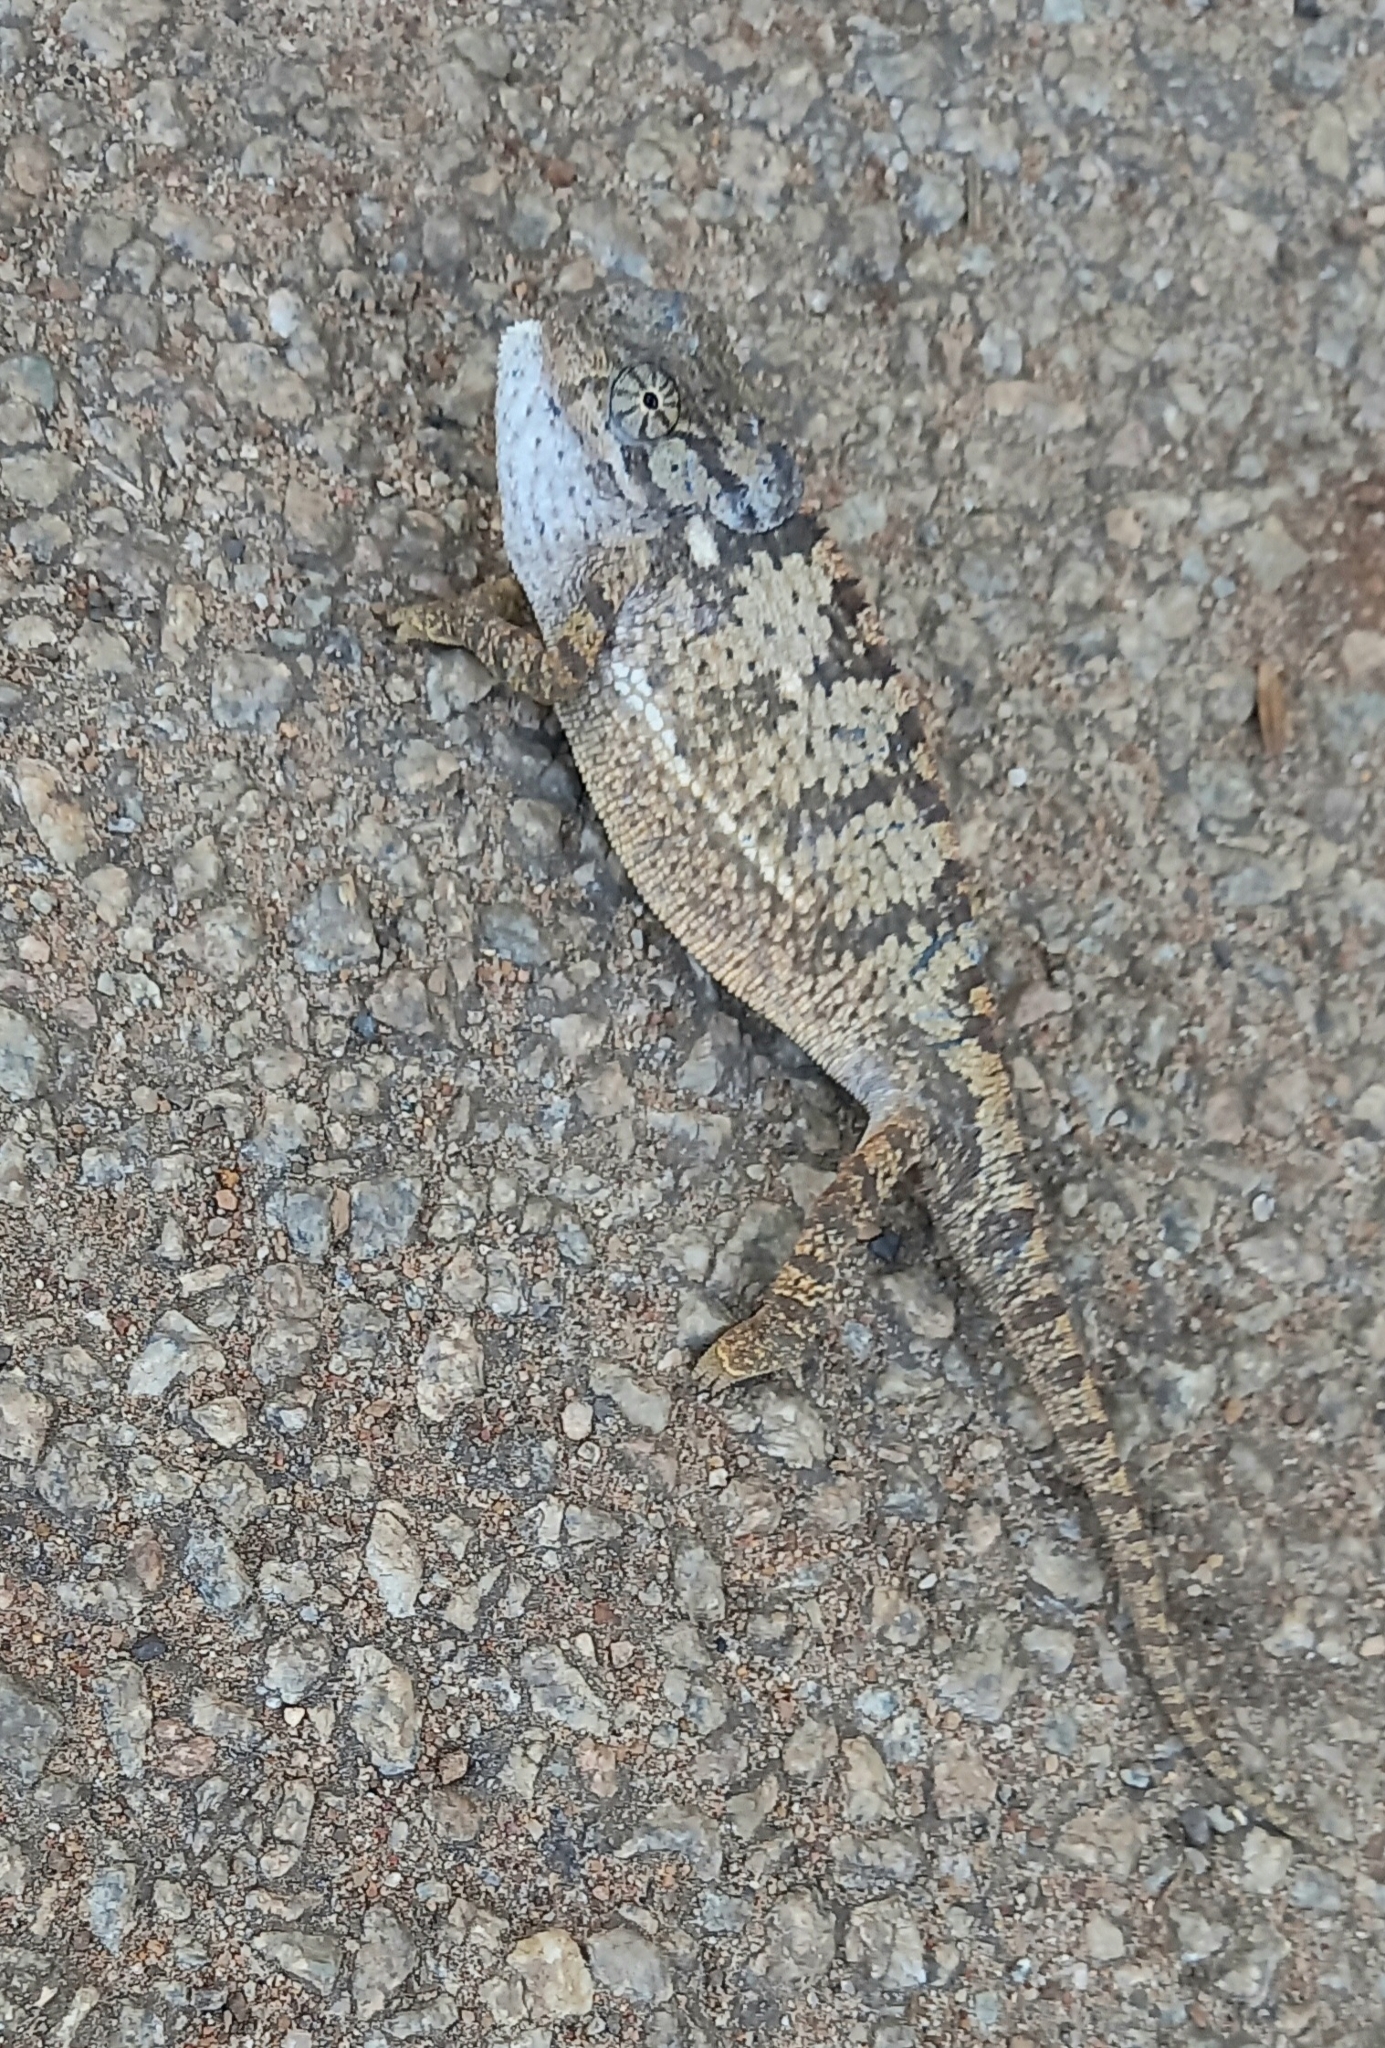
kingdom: Animalia
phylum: Chordata
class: Squamata
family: Chamaeleonidae
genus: Chamaeleo
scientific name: Chamaeleo dilepis
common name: Flapneck chameleon
